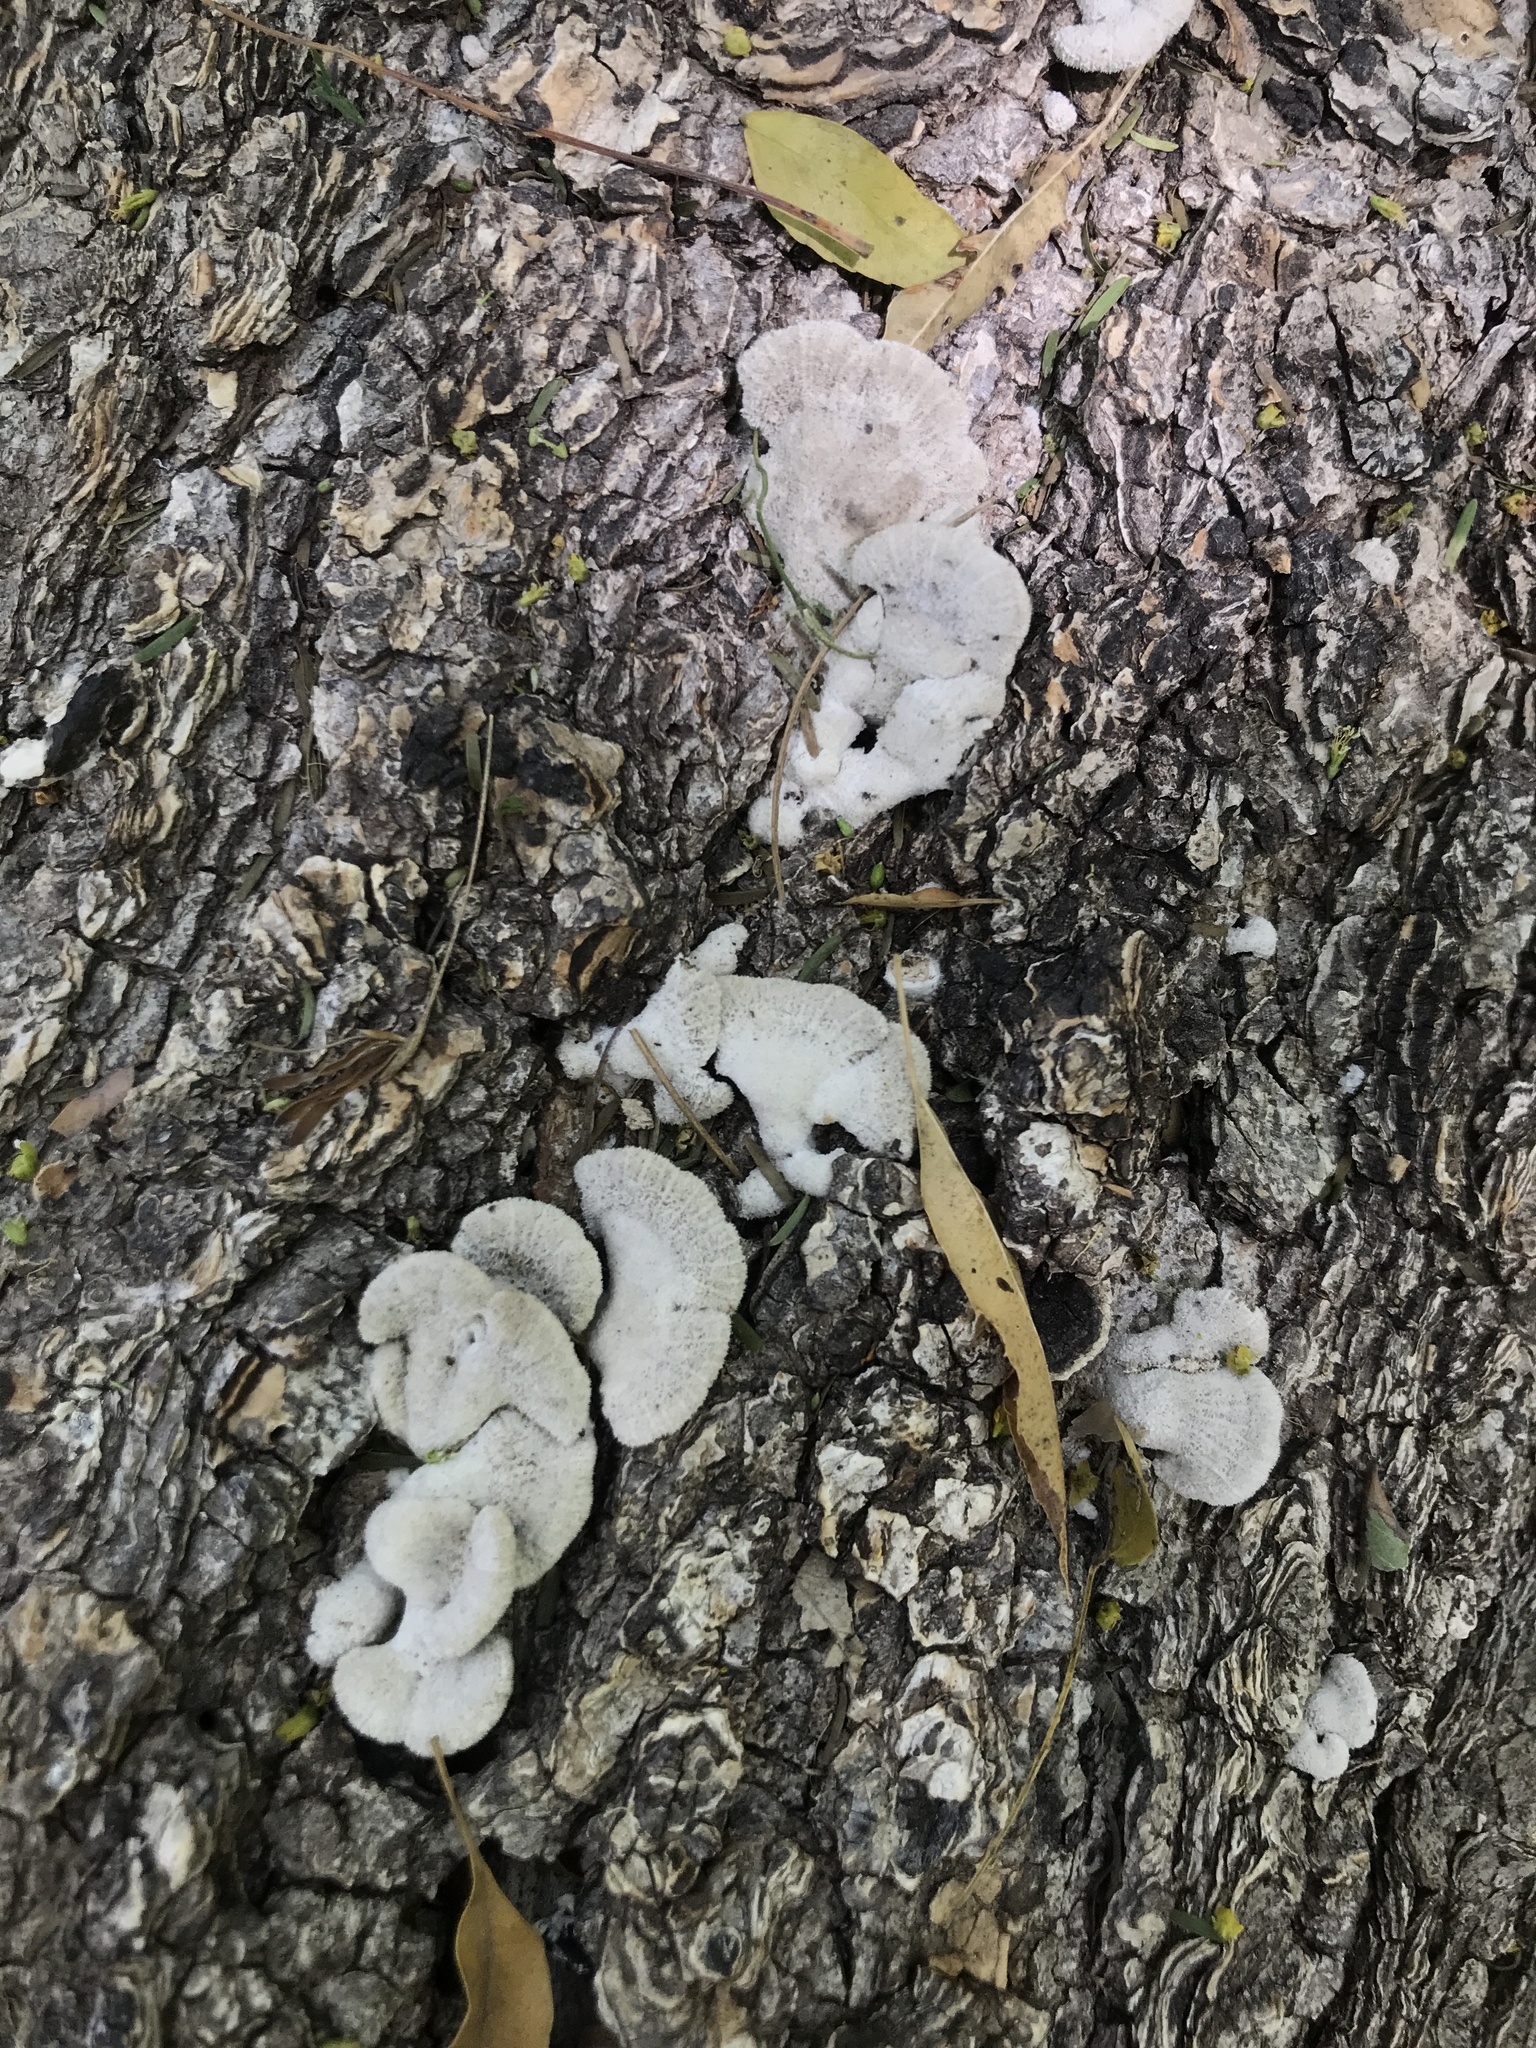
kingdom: Fungi
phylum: Basidiomycota
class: Agaricomycetes
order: Agaricales
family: Schizophyllaceae
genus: Schizophyllum
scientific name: Schizophyllum commune
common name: Common porecrust
